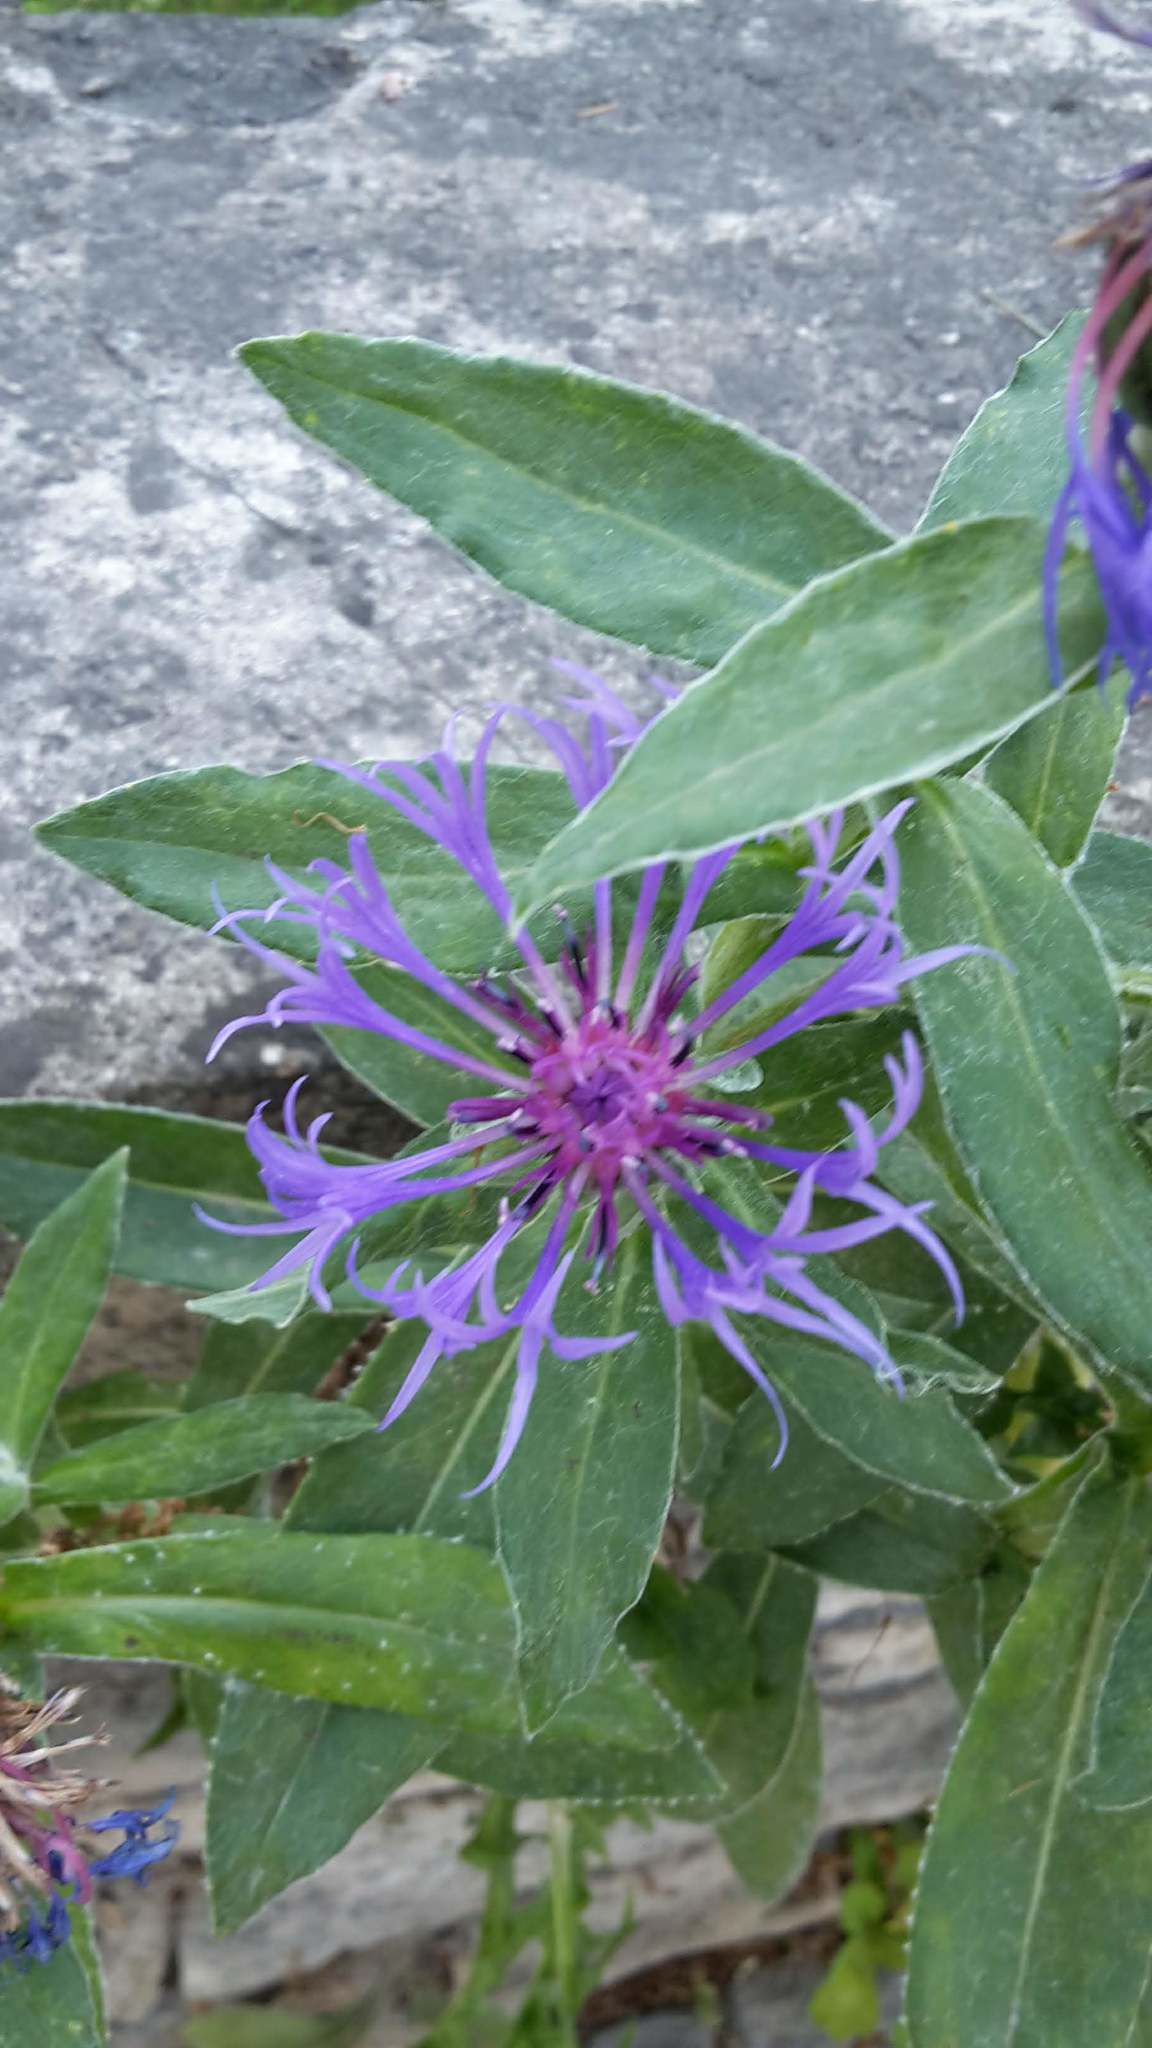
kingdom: Plantae
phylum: Tracheophyta
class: Magnoliopsida
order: Asterales
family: Asteraceae
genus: Centaurea
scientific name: Centaurea montana
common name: Perennial cornflower
